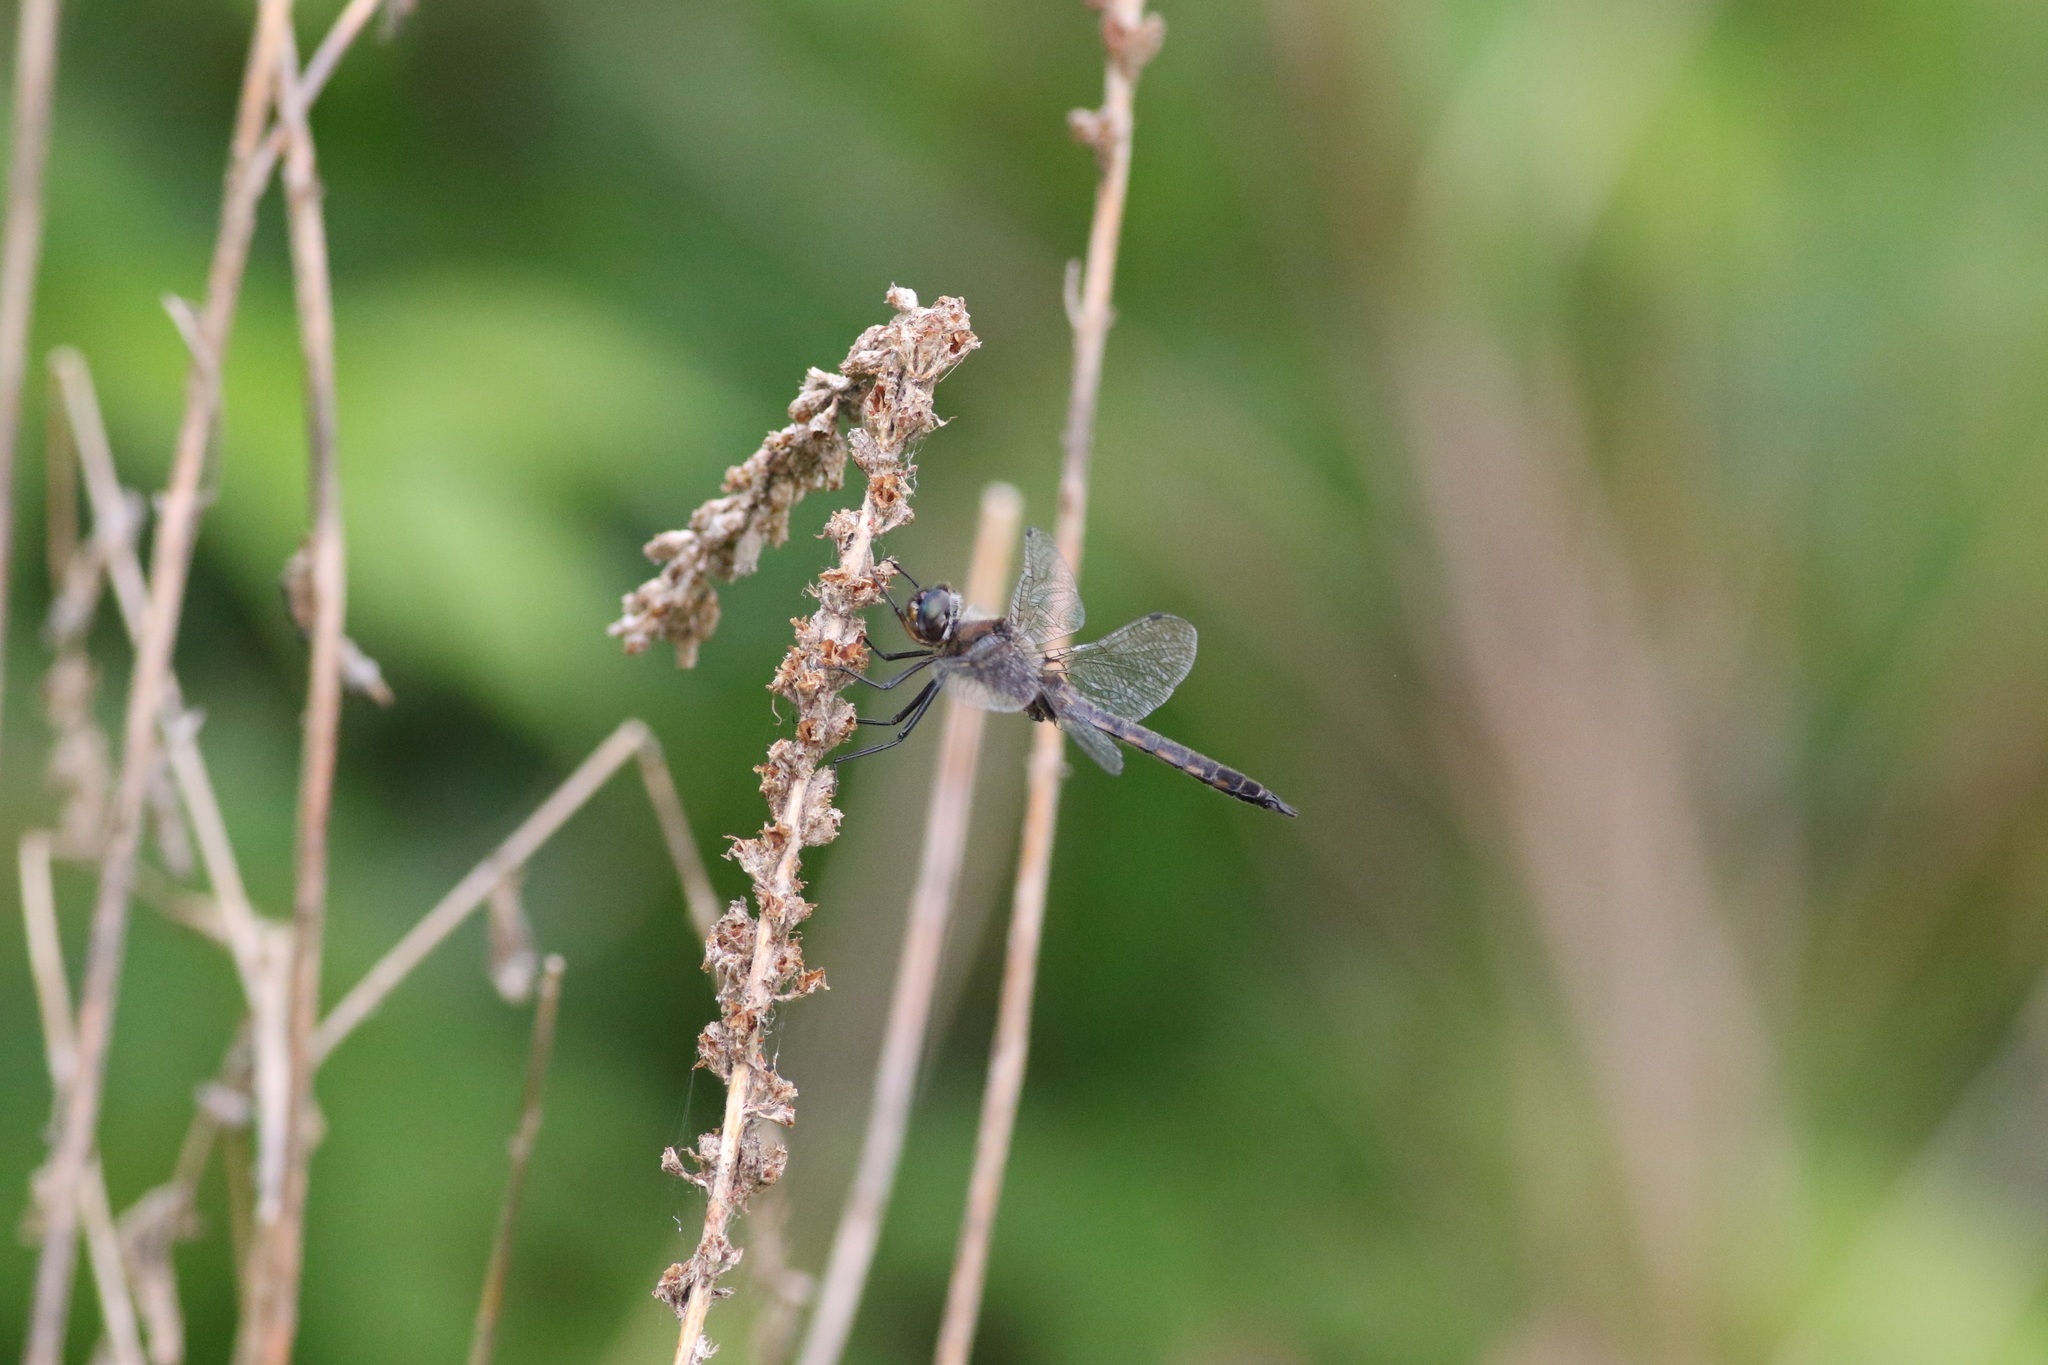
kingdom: Animalia
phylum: Arthropoda
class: Insecta
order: Odonata
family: Corduliidae
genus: Epitheca
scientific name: Epitheca cynosura
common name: Common baskettail
